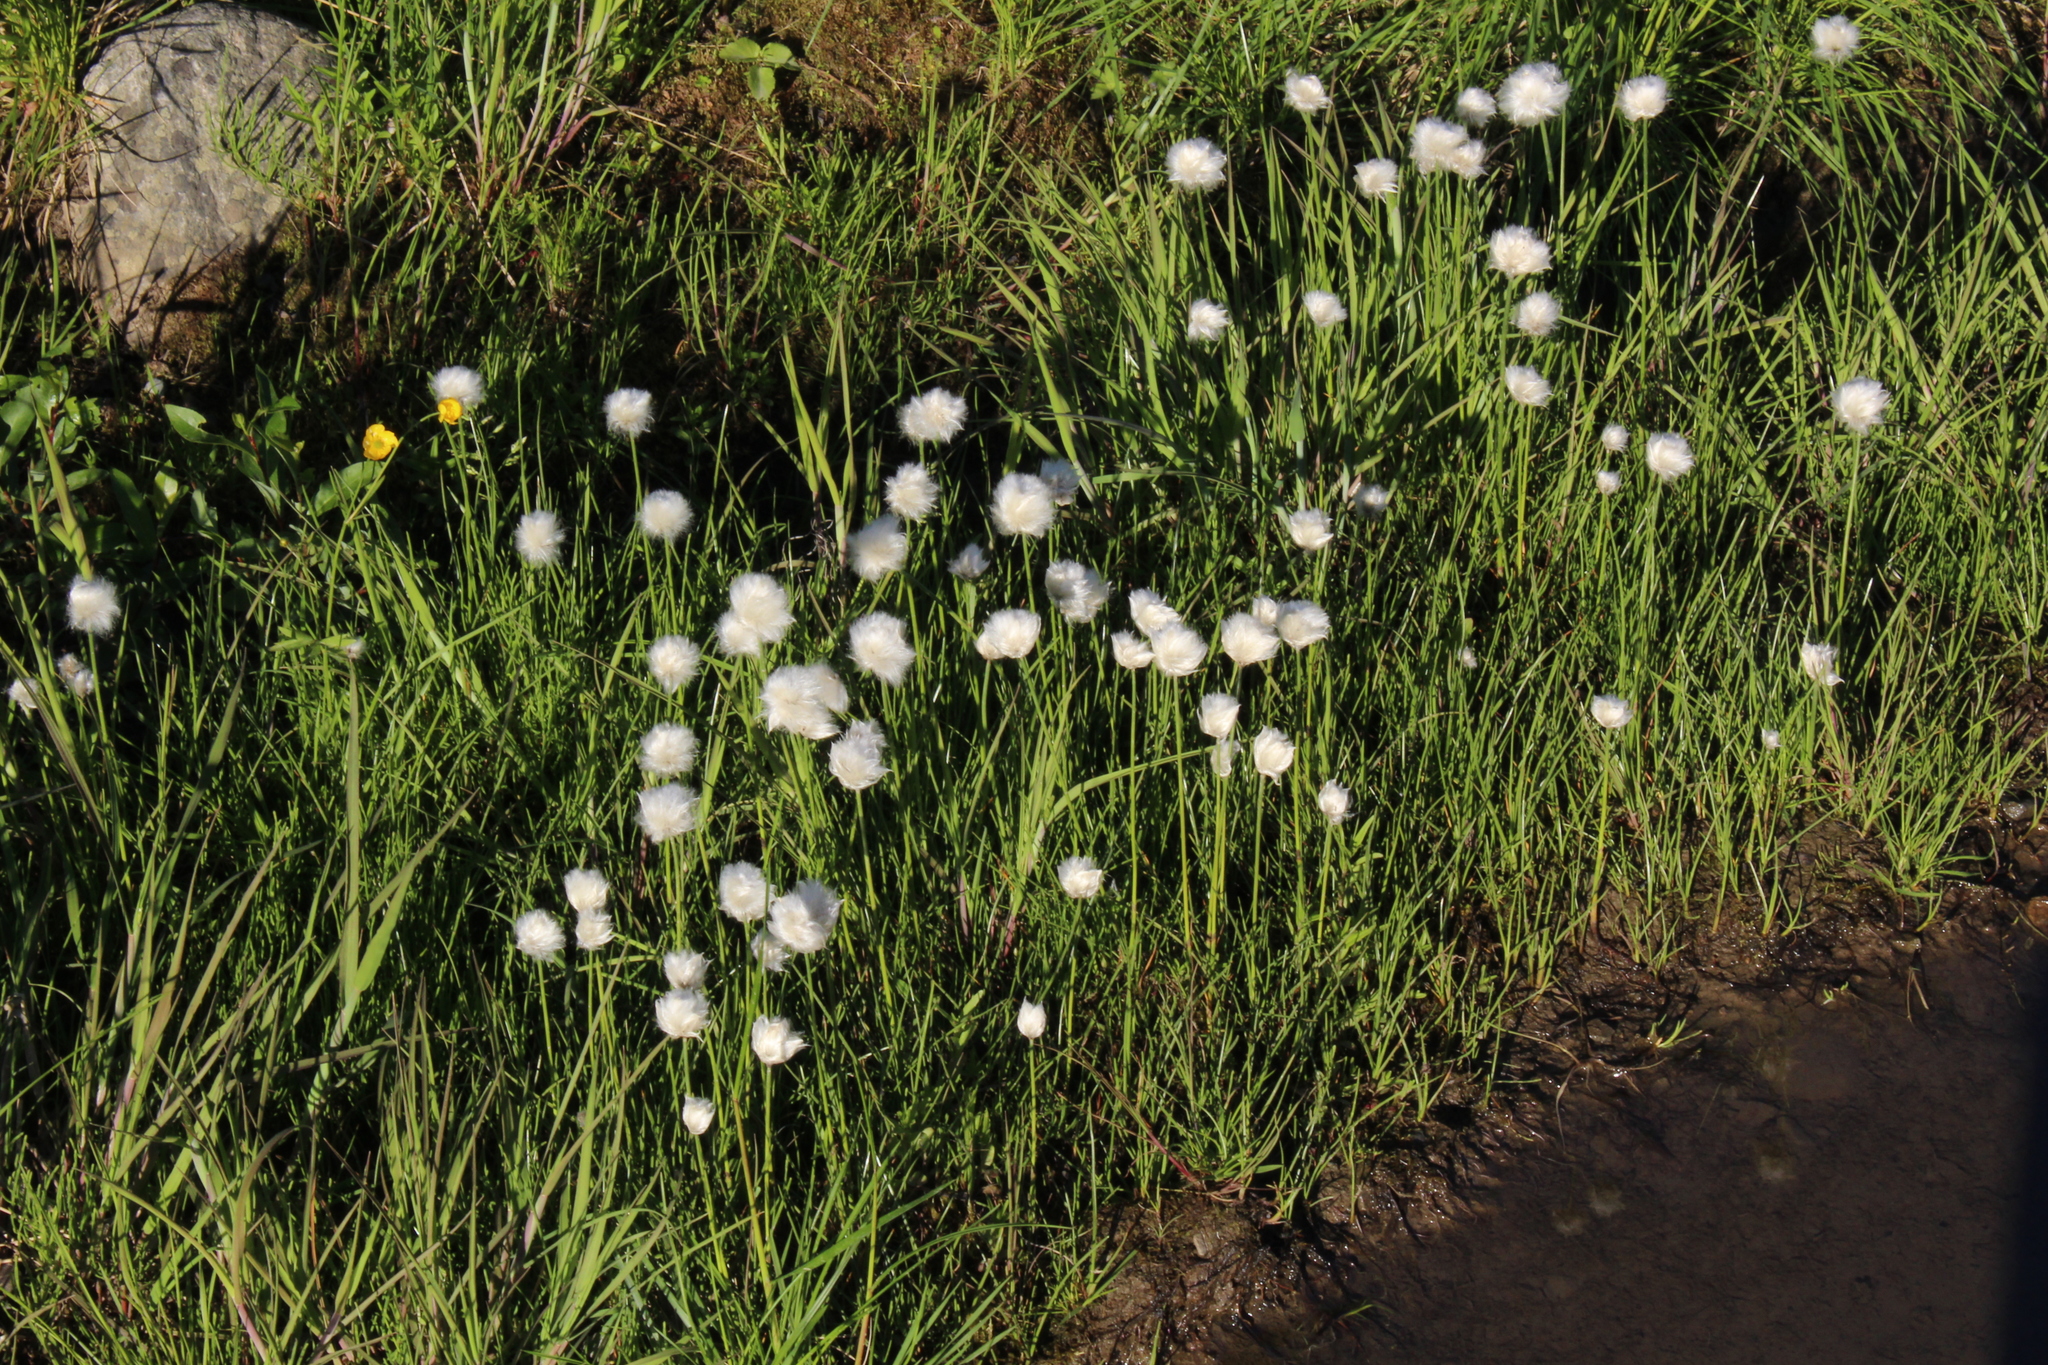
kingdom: Plantae
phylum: Tracheophyta
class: Liliopsida
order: Poales
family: Cyperaceae
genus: Eriophorum
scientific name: Eriophorum scheuchzeri
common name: Scheuchzer's cottongrass
